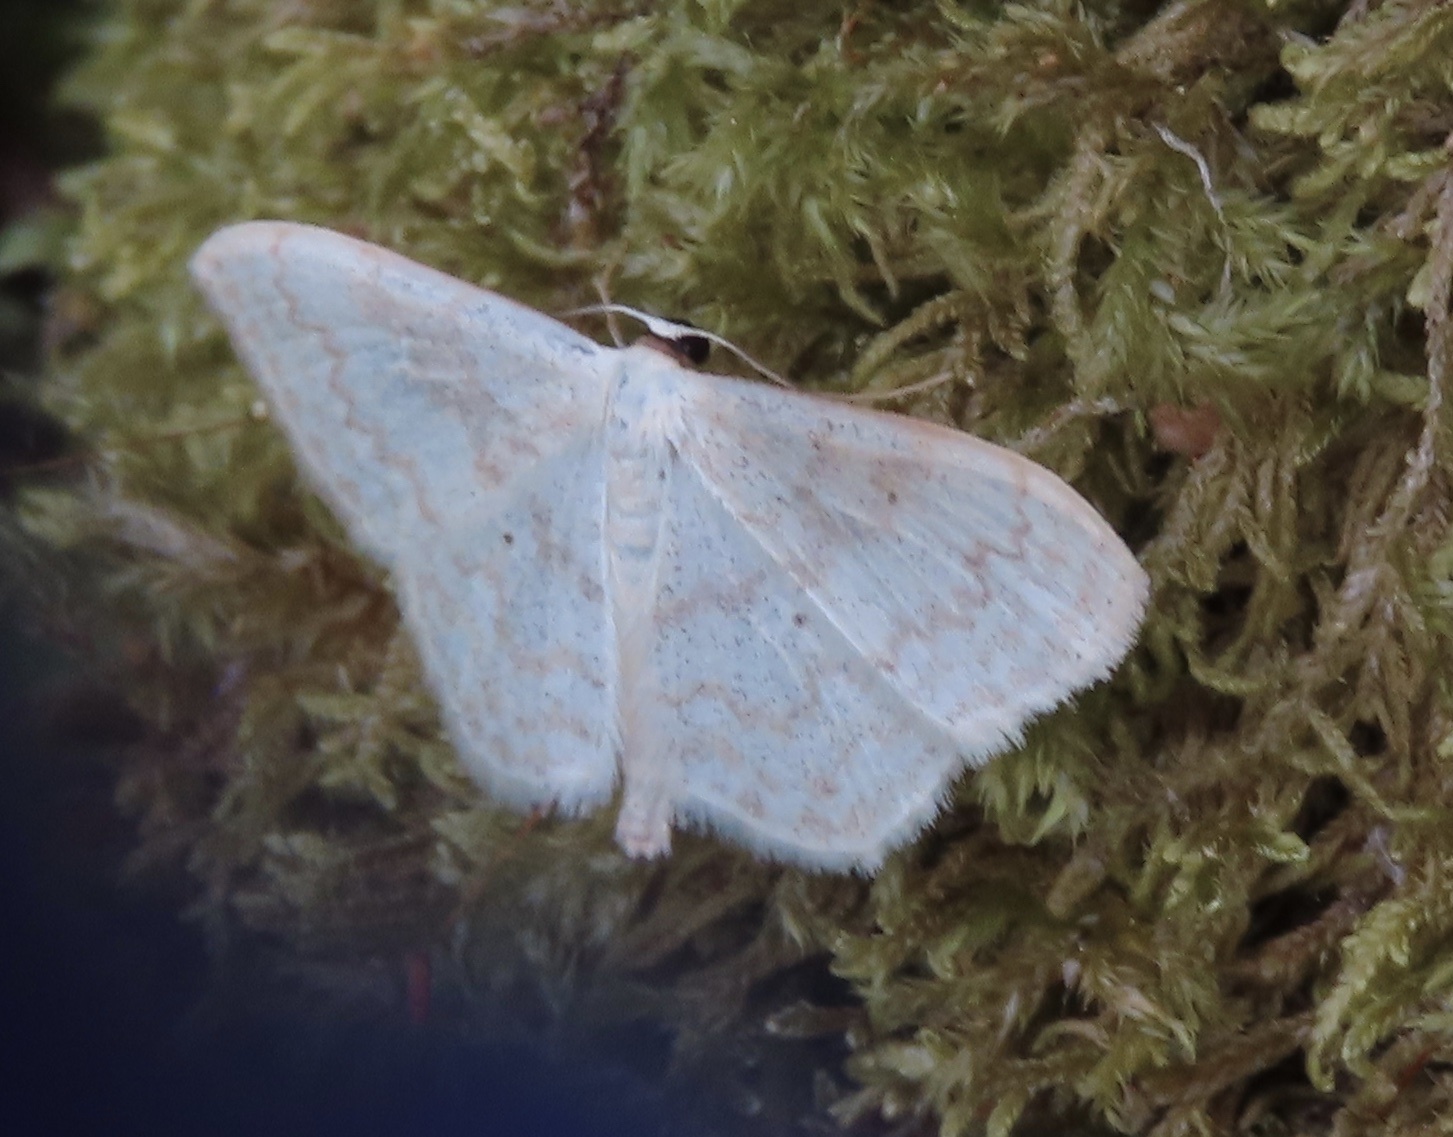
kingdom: Animalia
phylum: Arthropoda
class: Insecta
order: Lepidoptera
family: Geometridae
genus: Scopula
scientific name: Scopula floslactata
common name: Cream wave
